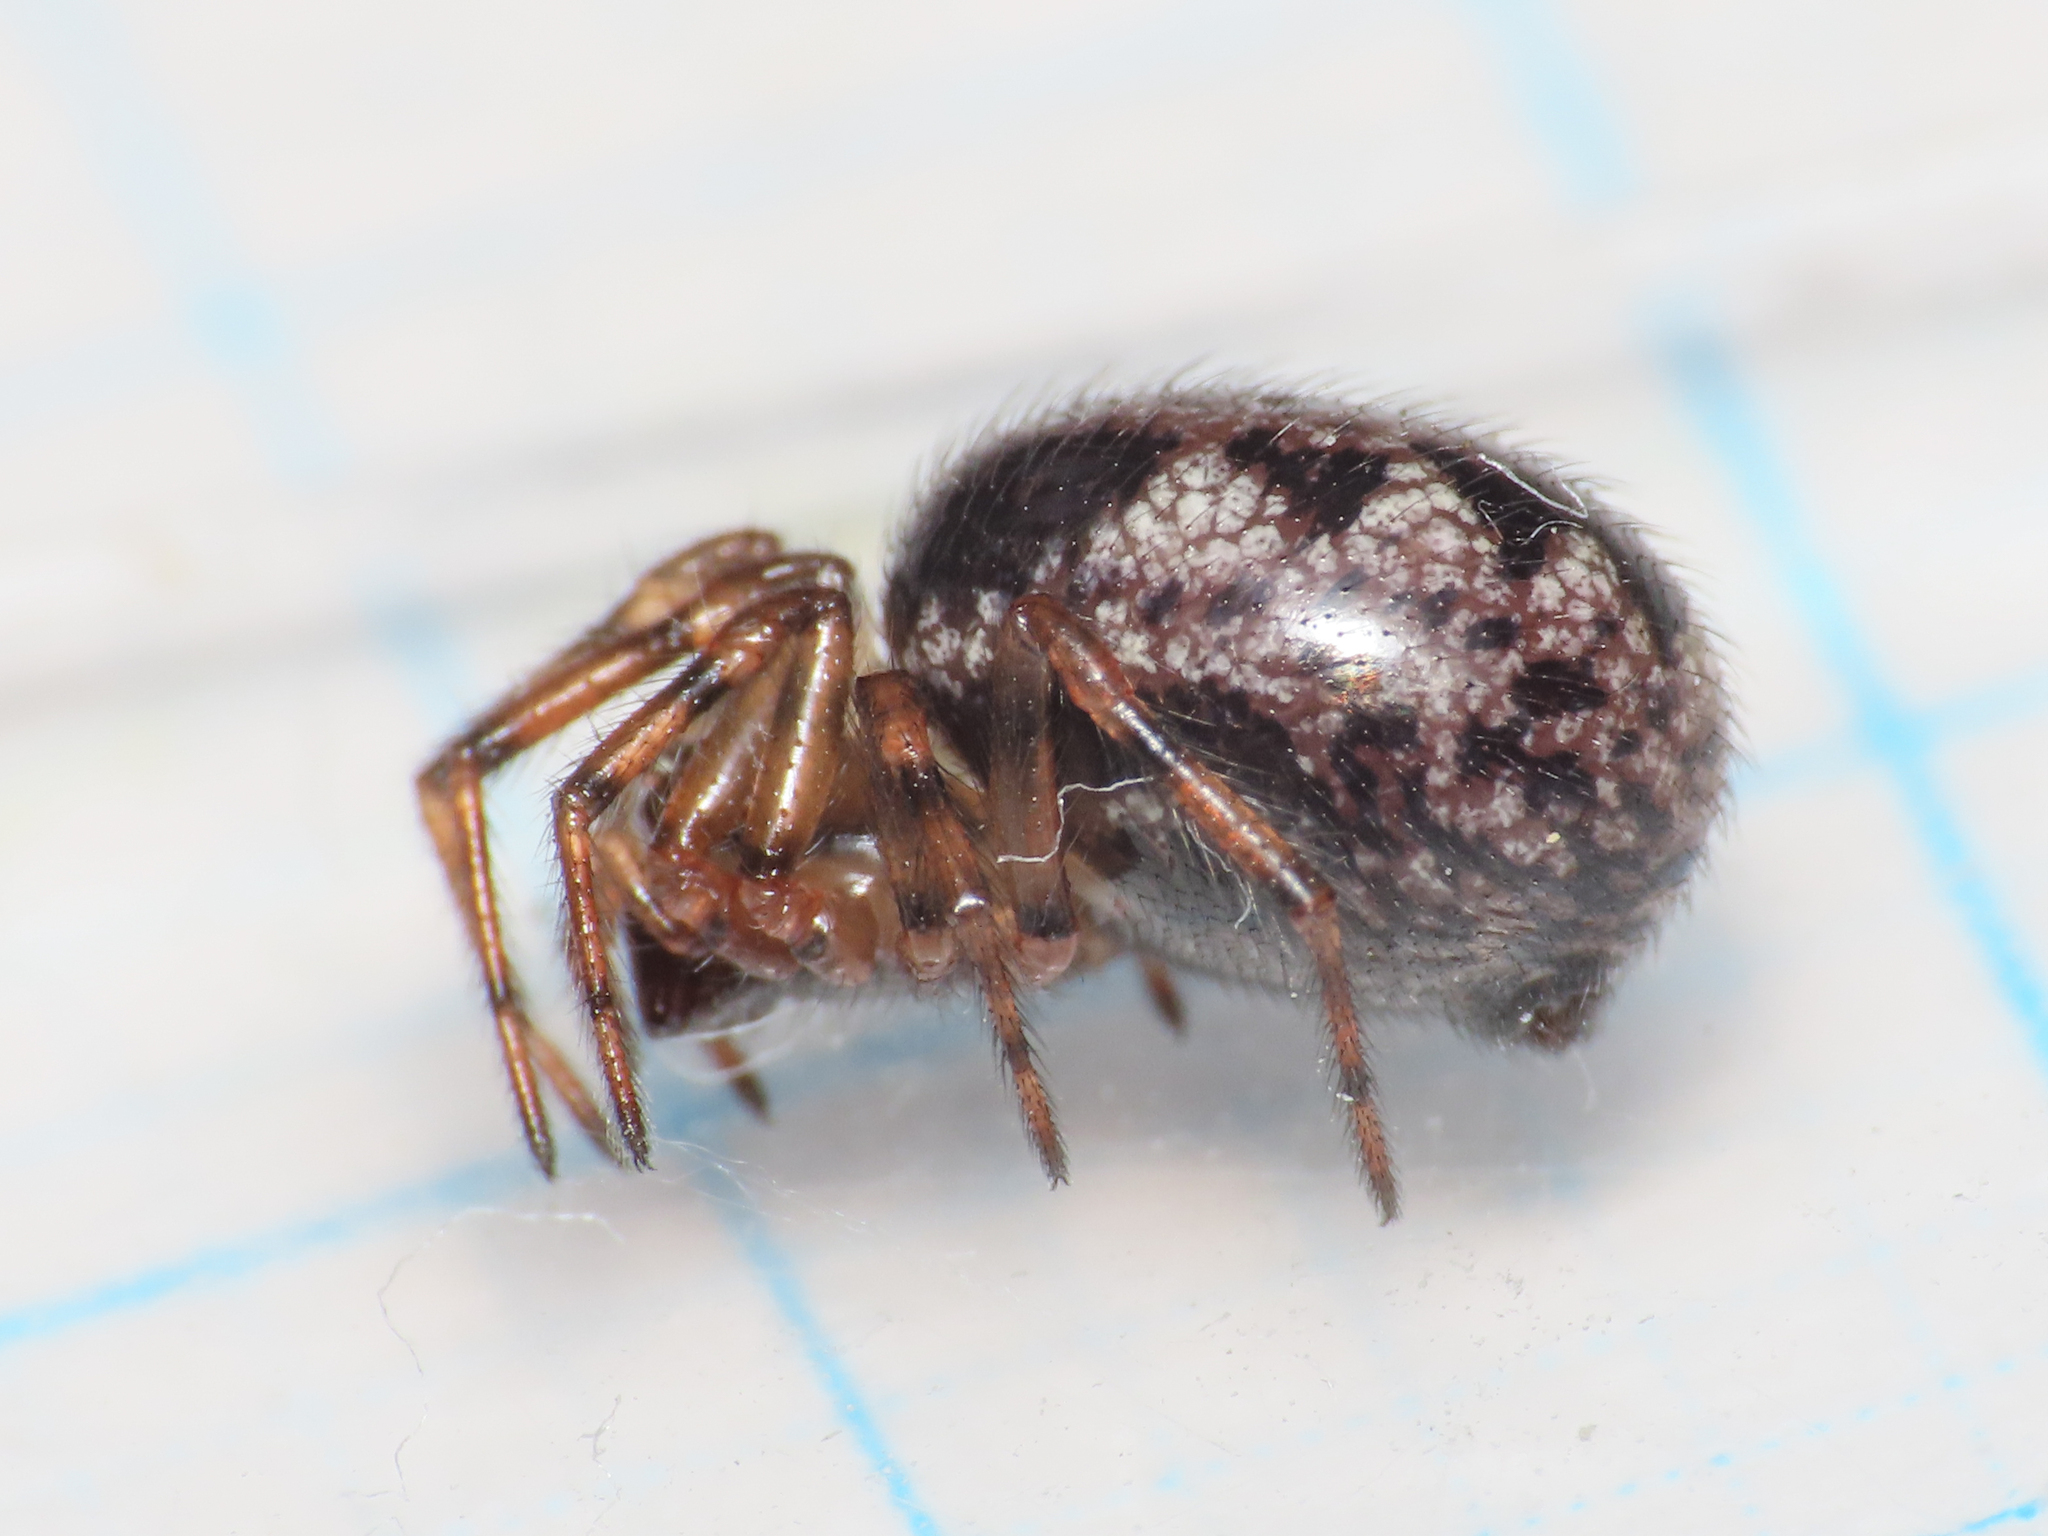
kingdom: Animalia
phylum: Arthropoda
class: Arachnida
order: Araneae
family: Theridiidae
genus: Enoplognatha
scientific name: Enoplognatha mandibularis
